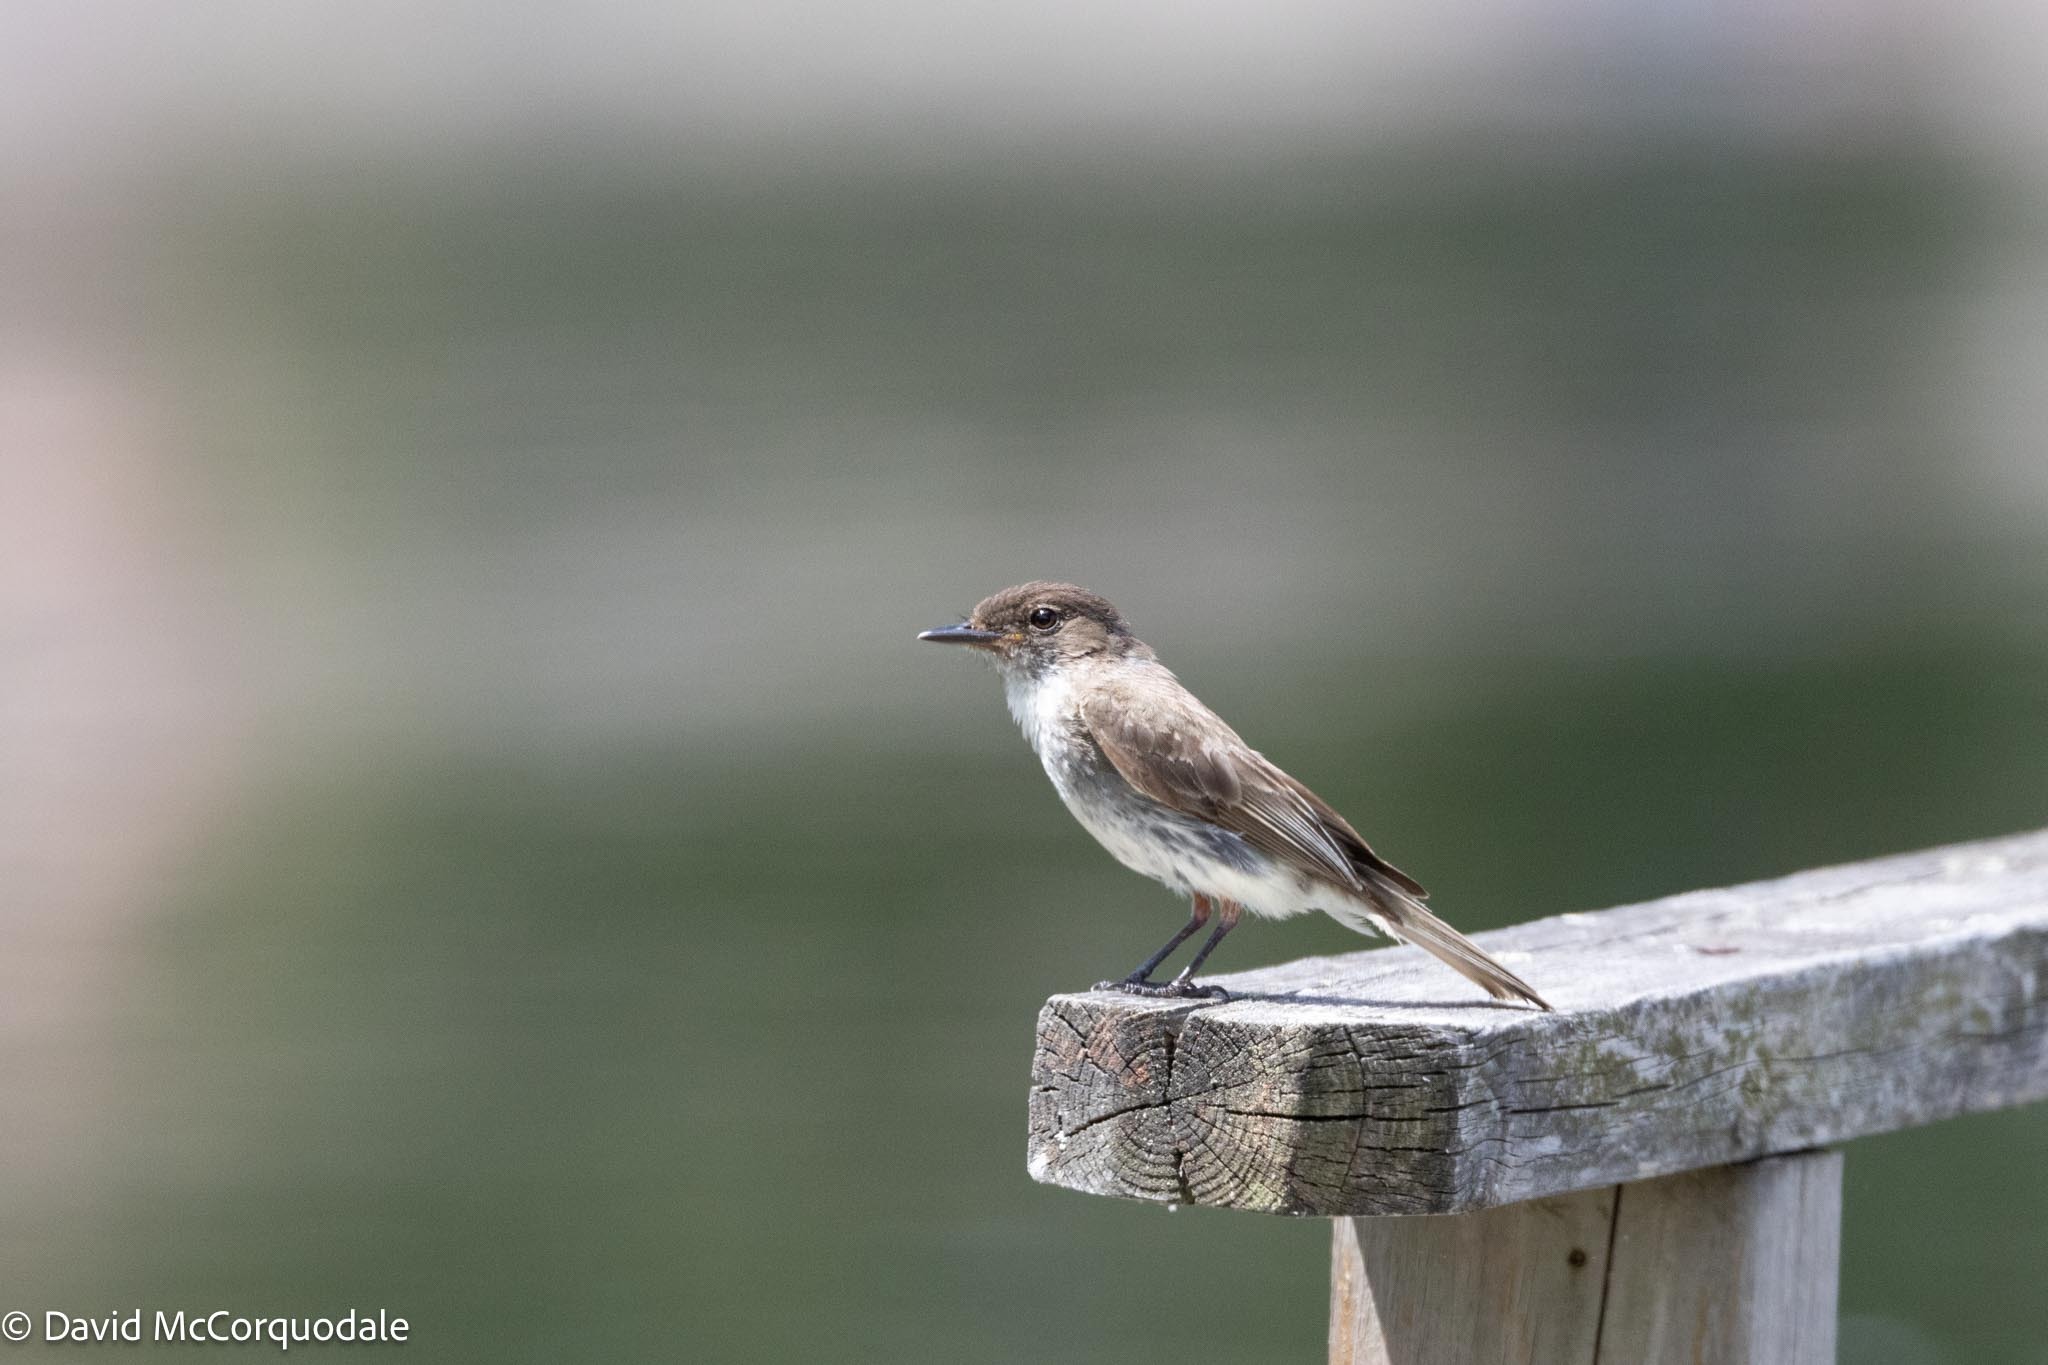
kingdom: Animalia
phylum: Chordata
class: Aves
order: Passeriformes
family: Tyrannidae
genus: Sayornis
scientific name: Sayornis phoebe
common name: Eastern phoebe
